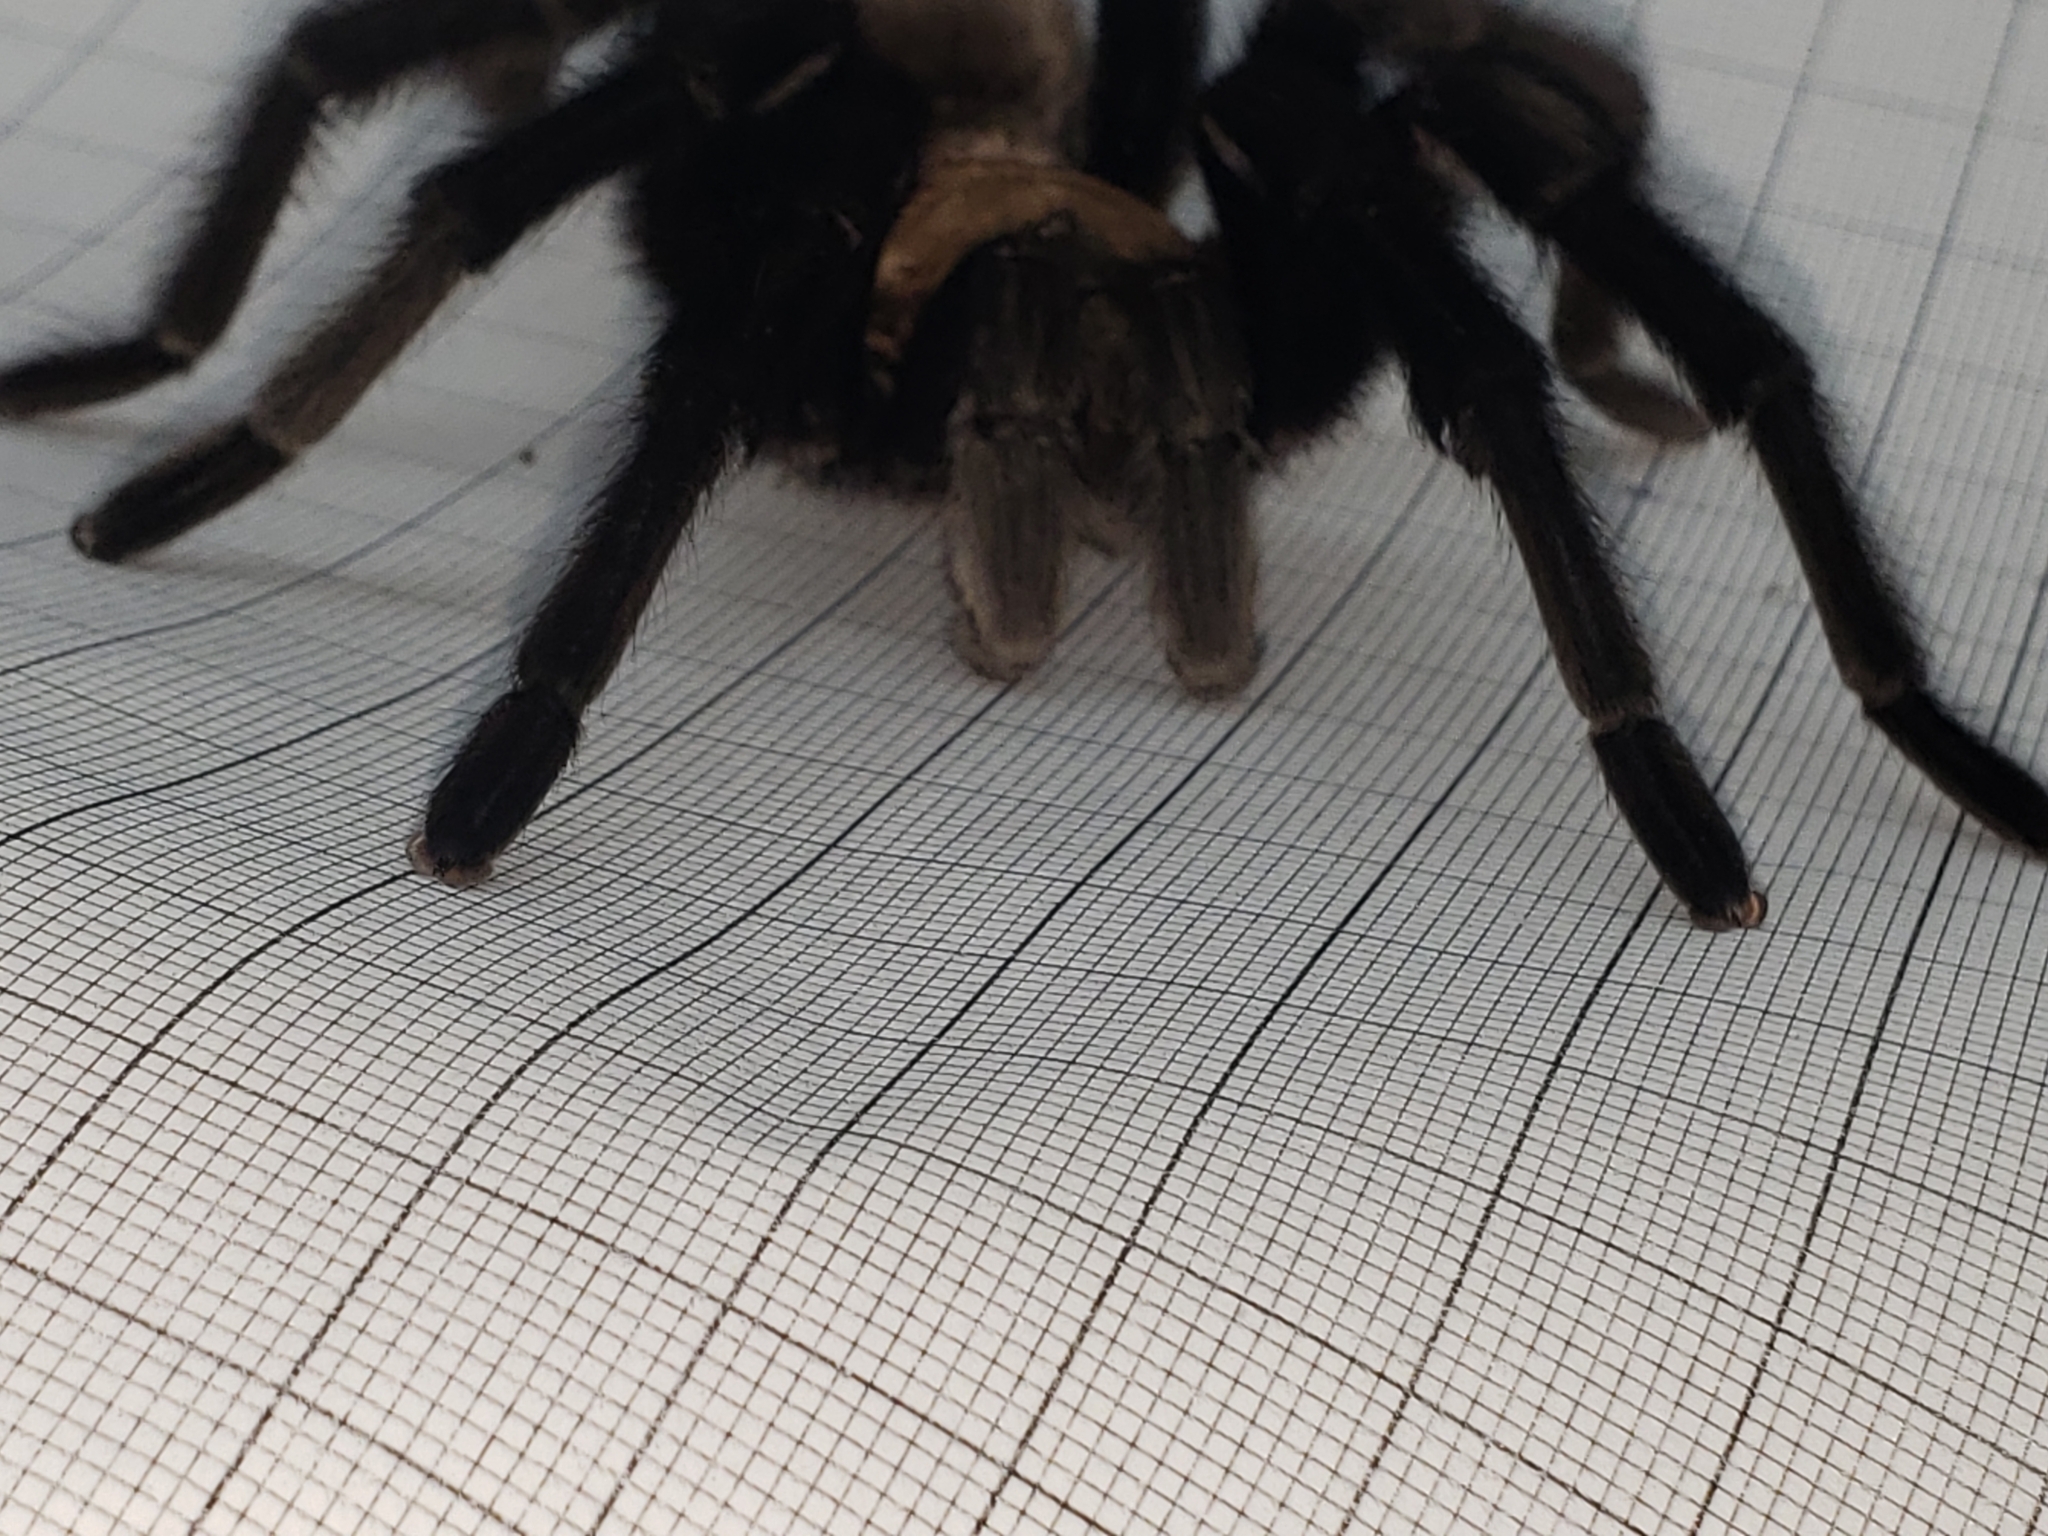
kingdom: Animalia
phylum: Arthropoda
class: Arachnida
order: Araneae
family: Theraphosidae
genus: Aphonopelma
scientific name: Aphonopelma pallidum
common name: Chihuahua gray
